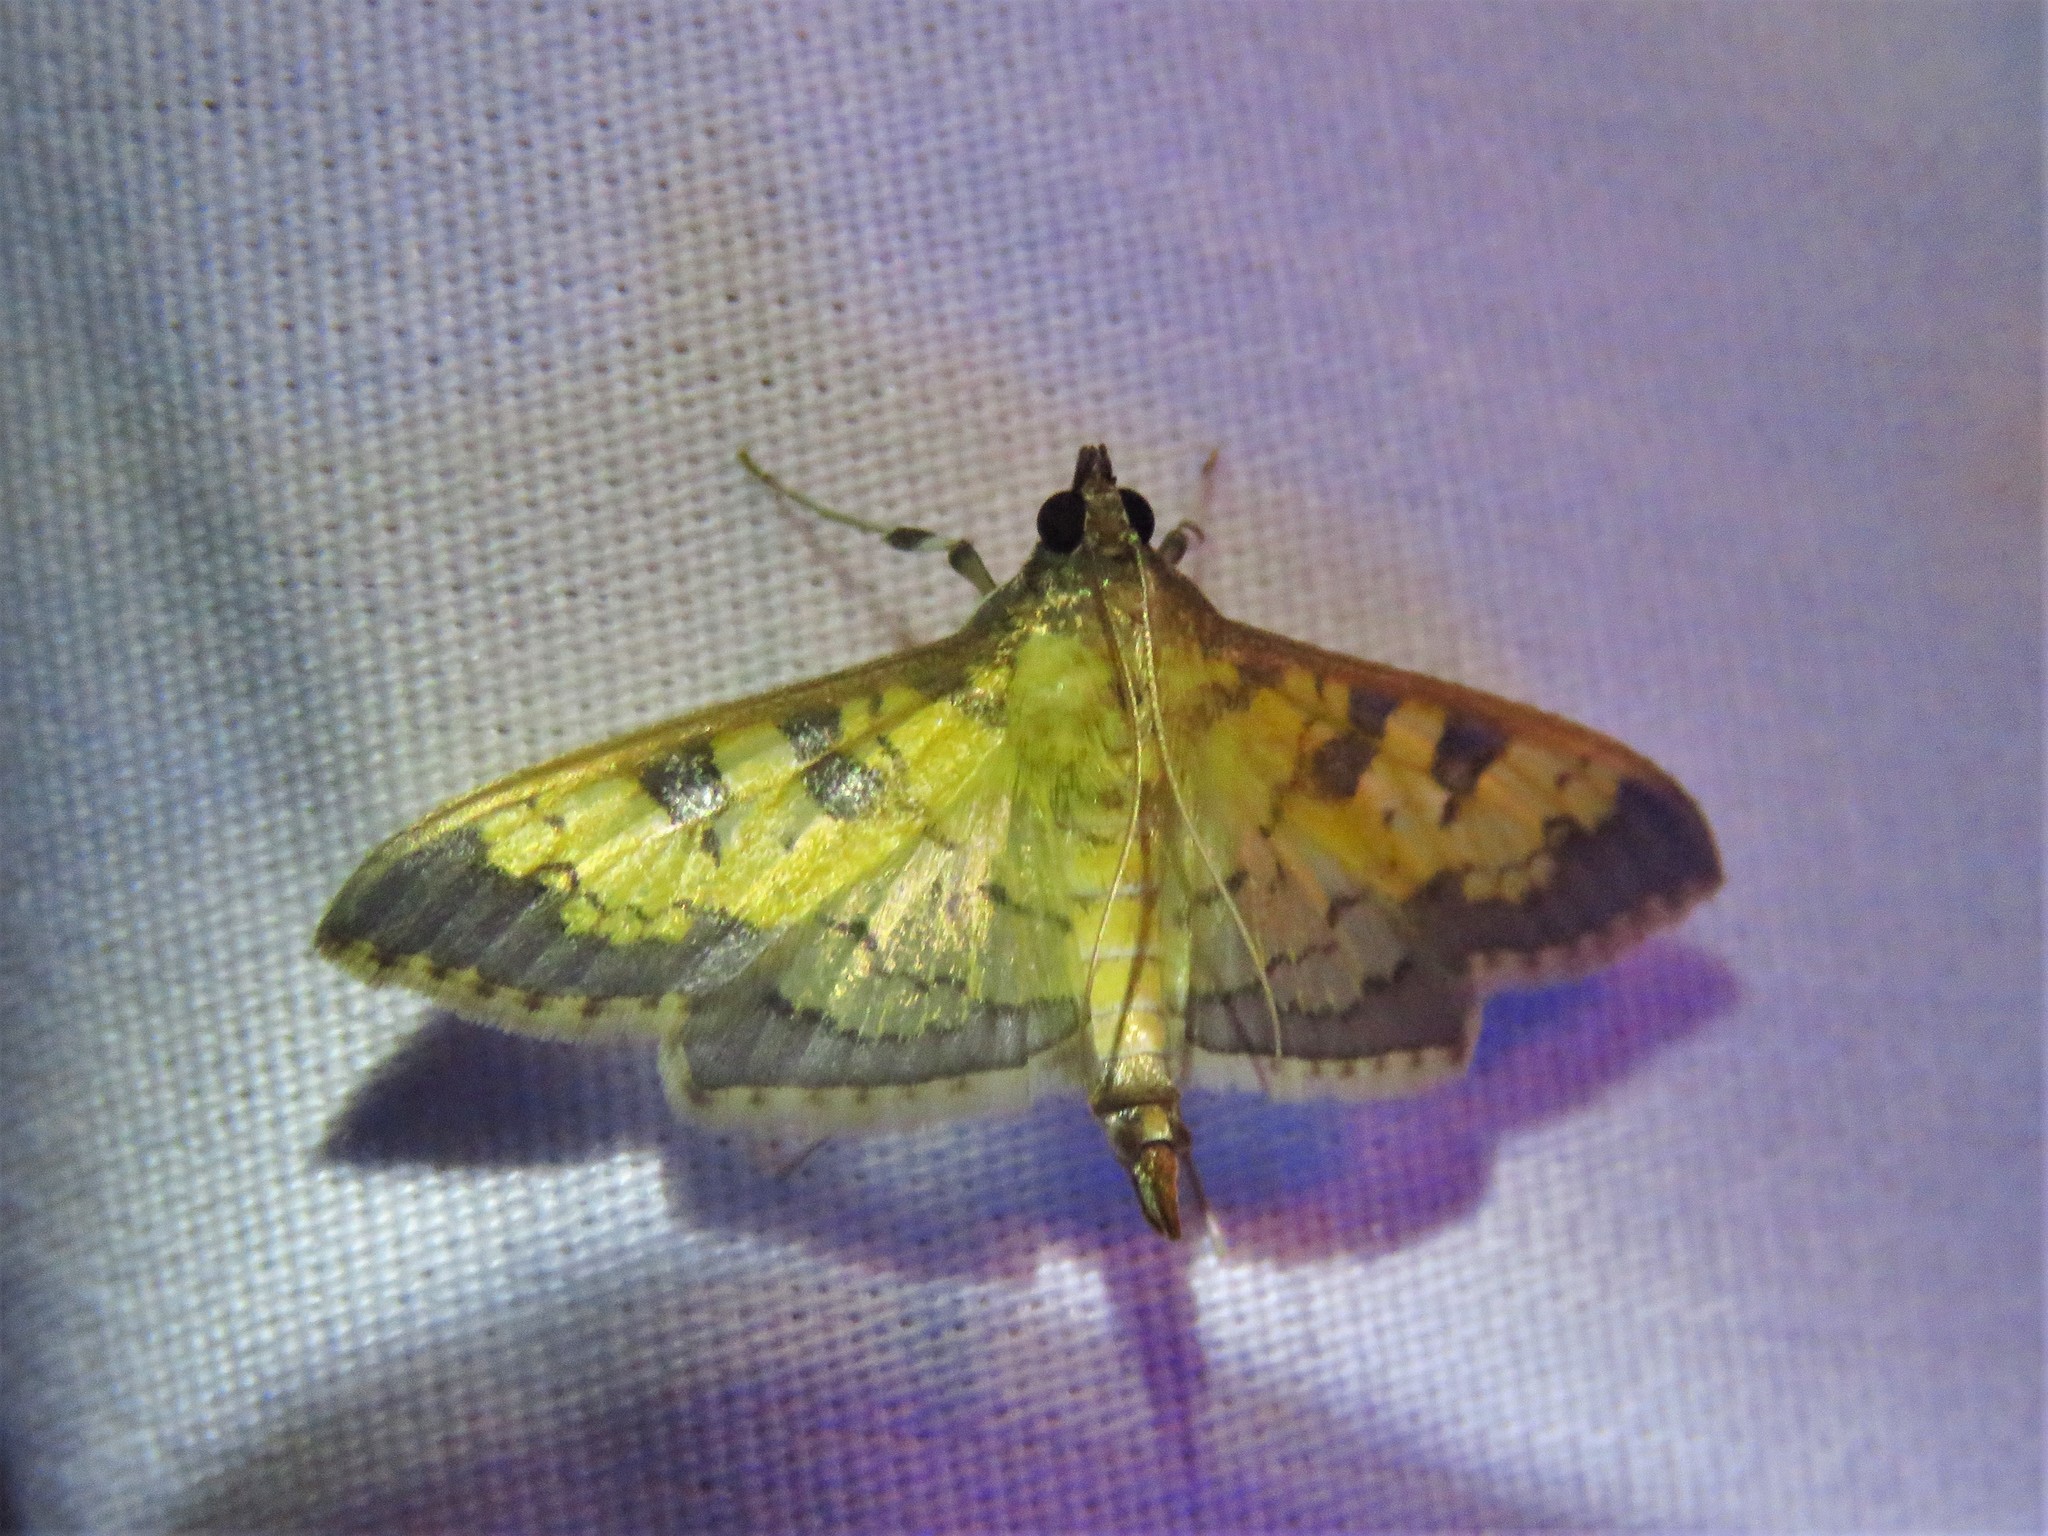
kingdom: Animalia
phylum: Arthropoda
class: Insecta
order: Lepidoptera
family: Crambidae
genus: Cryptographis
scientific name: Cryptographis elealis
